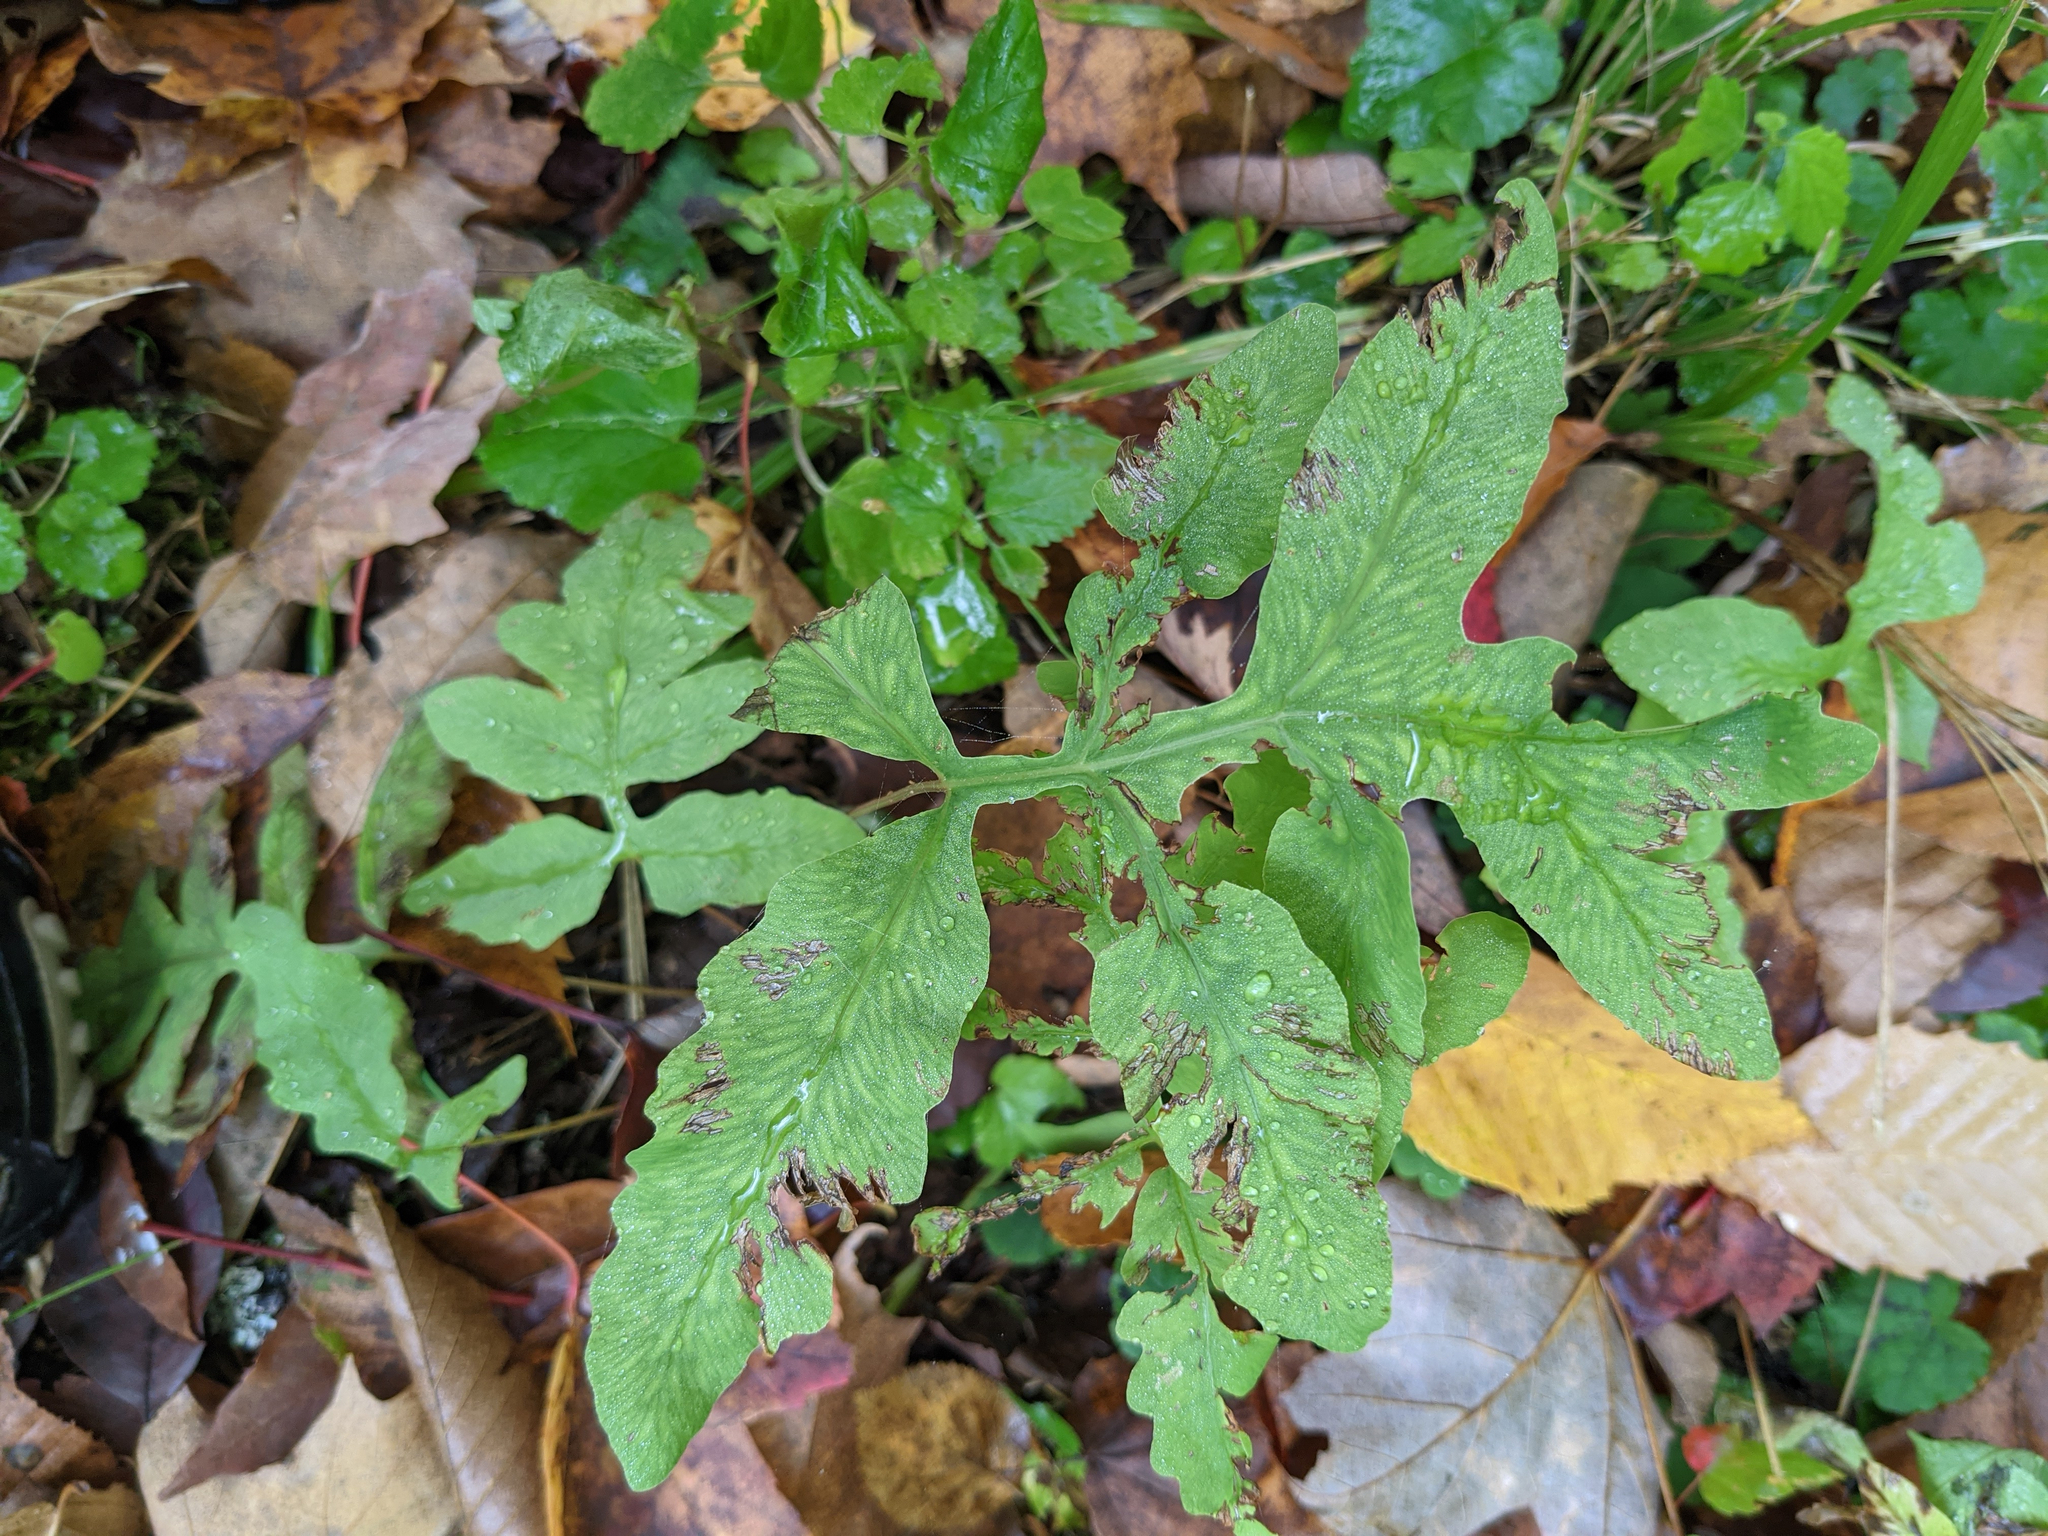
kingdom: Plantae
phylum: Tracheophyta
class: Polypodiopsida
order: Polypodiales
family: Onocleaceae
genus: Onoclea
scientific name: Onoclea sensibilis
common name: Sensitive fern
